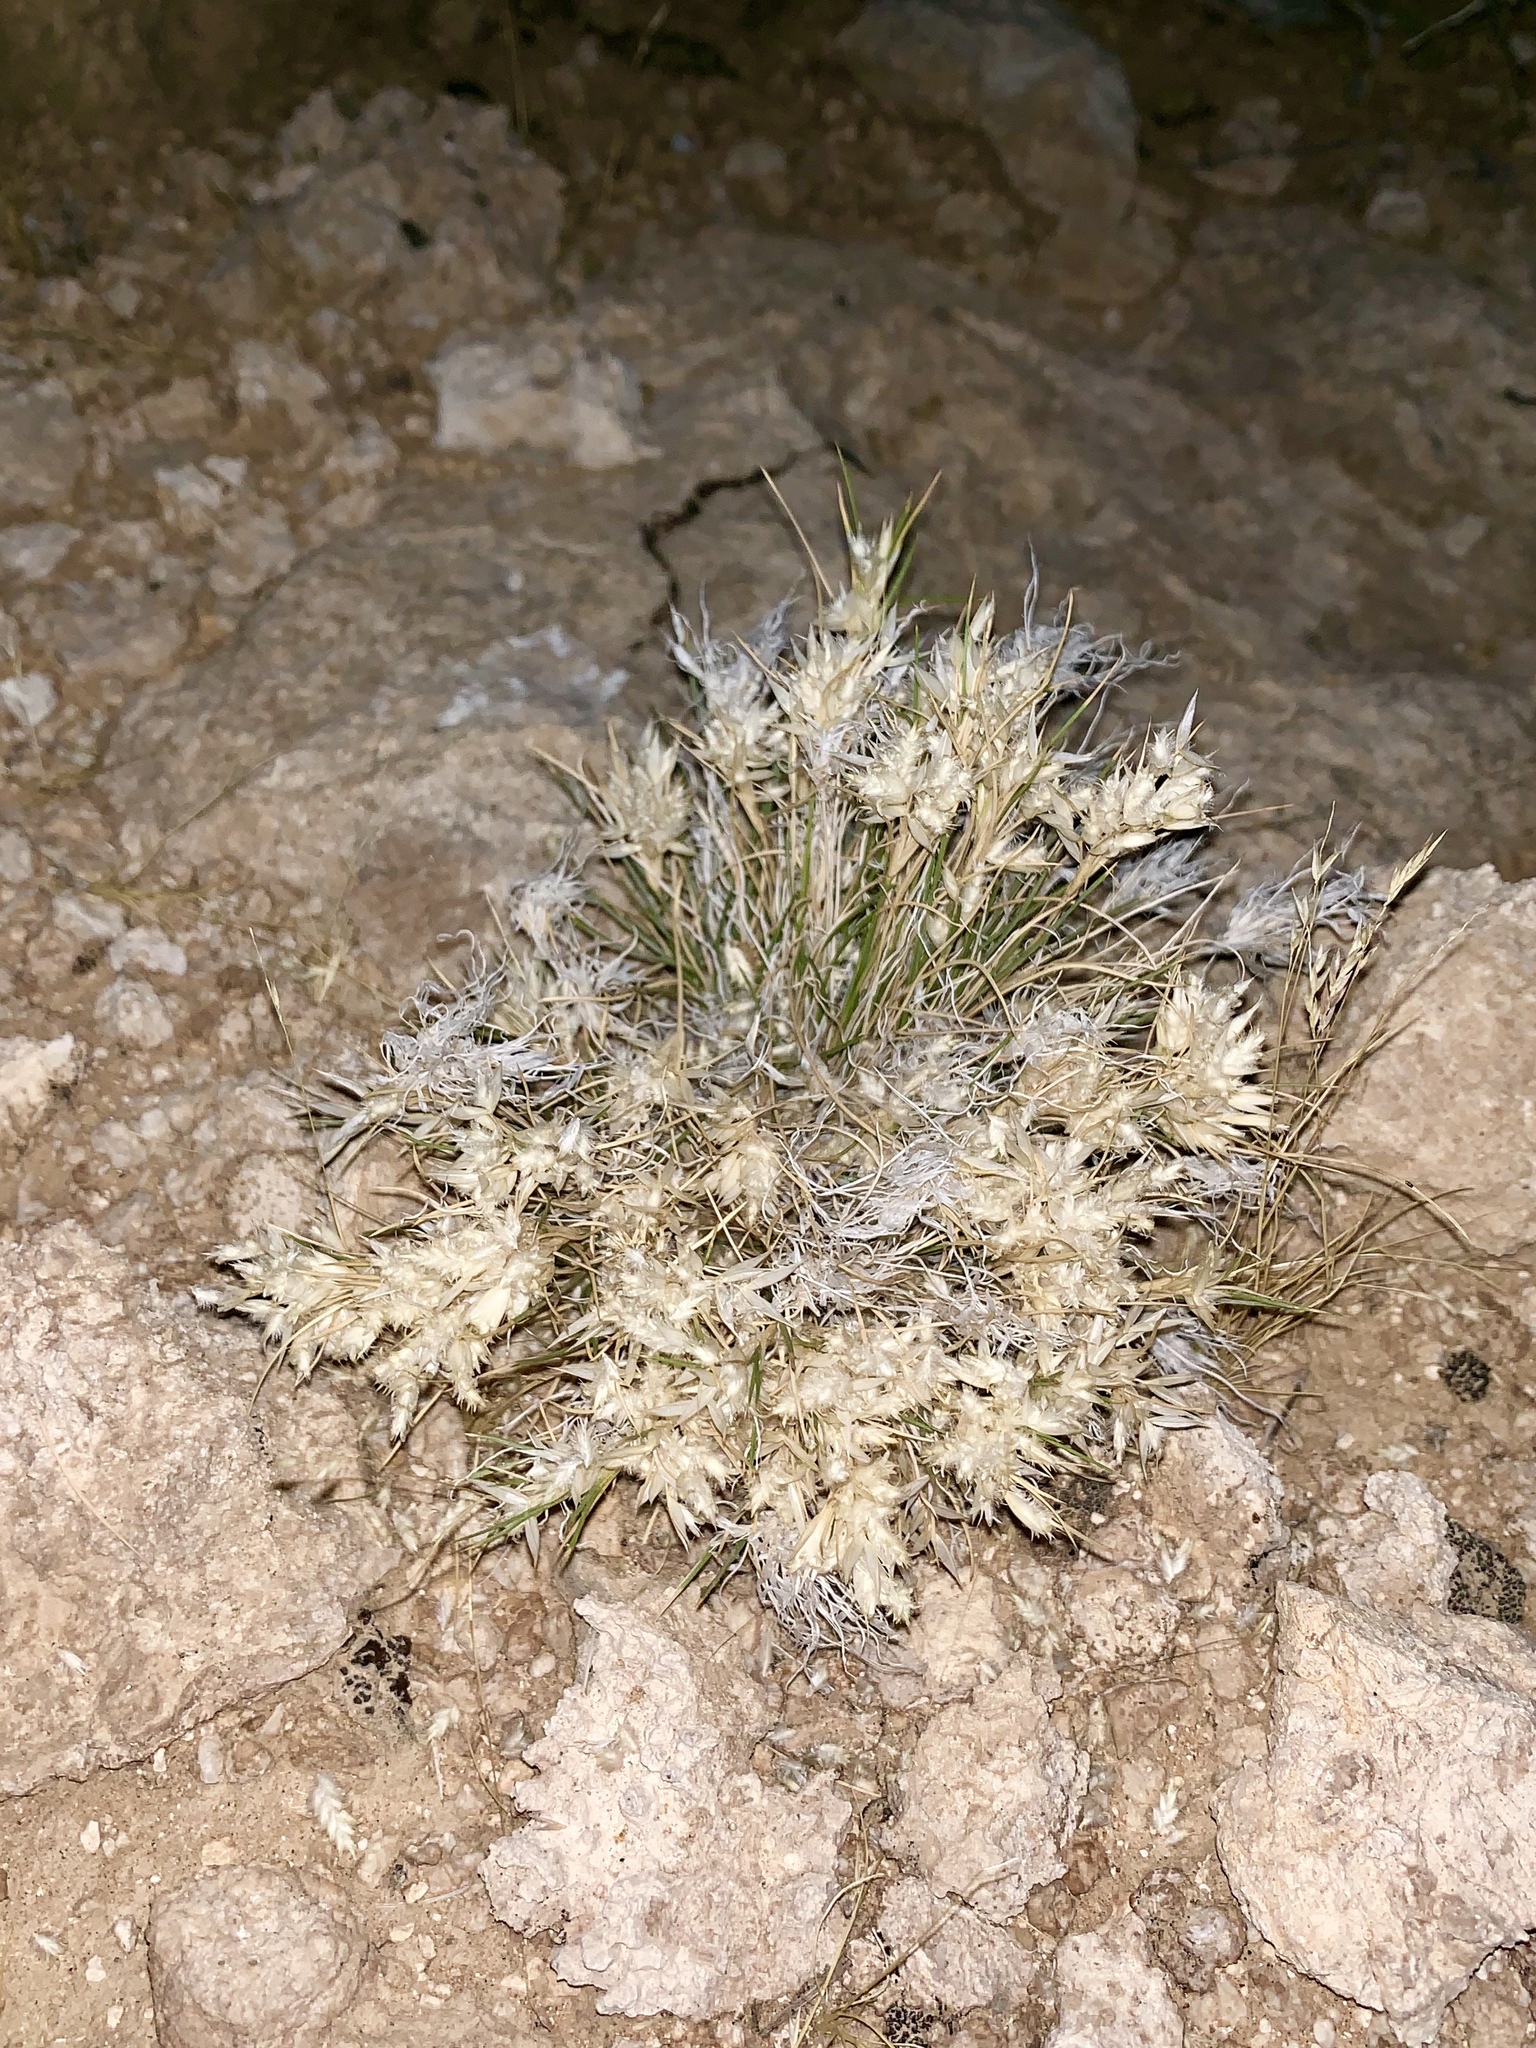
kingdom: Plantae
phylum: Tracheophyta
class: Liliopsida
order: Poales
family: Poaceae
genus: Dasyochloa
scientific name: Dasyochloa pulchella
